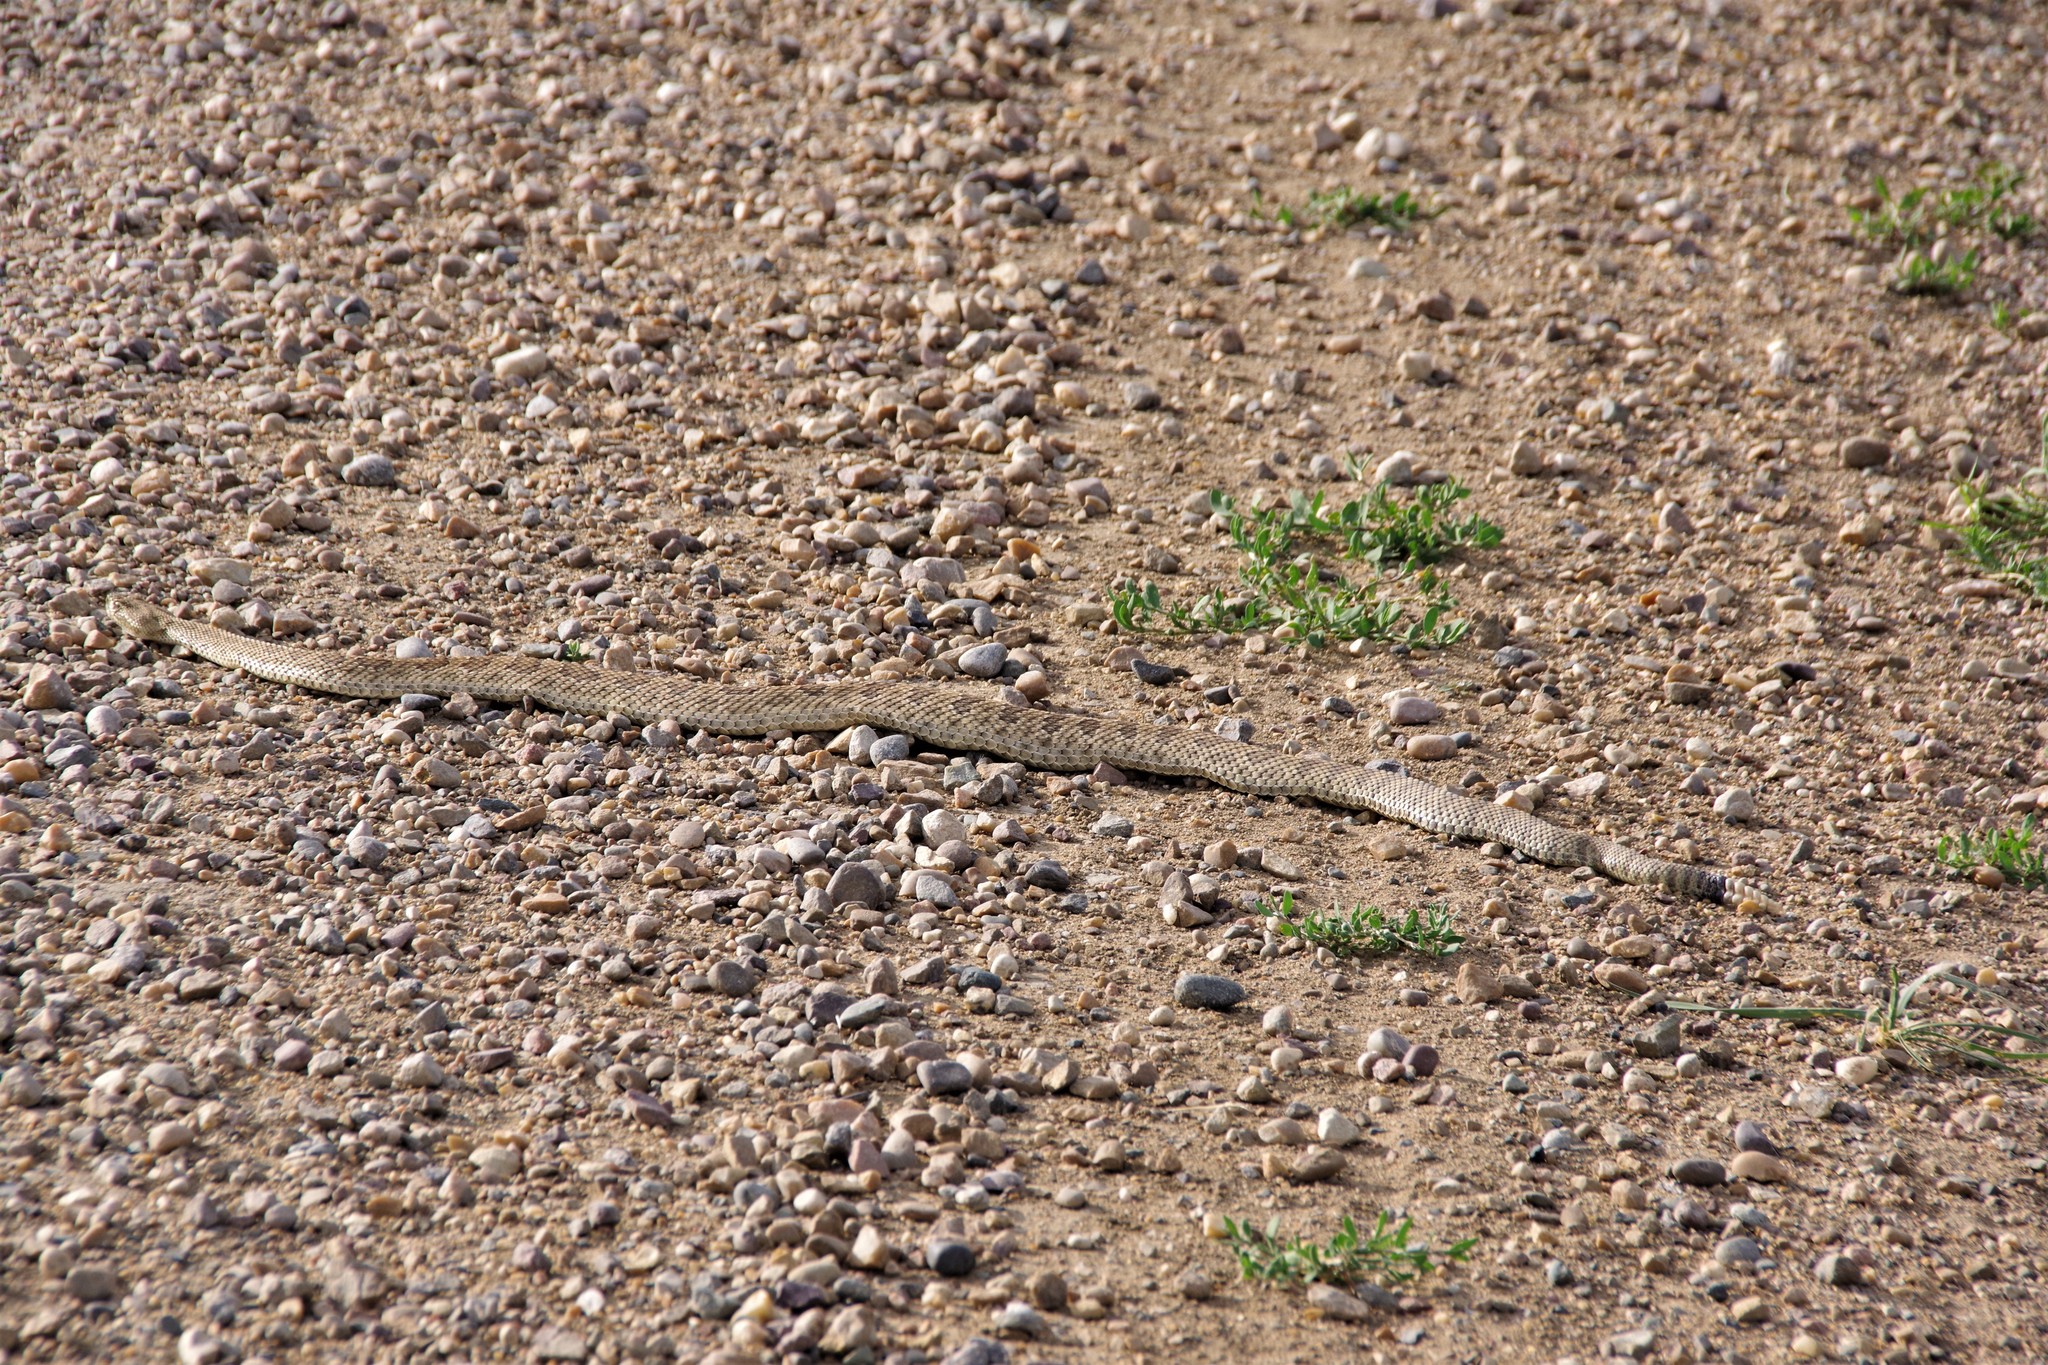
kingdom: Animalia
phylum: Chordata
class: Squamata
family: Viperidae
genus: Crotalus
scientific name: Crotalus viridis
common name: Prairie rattlesnake
